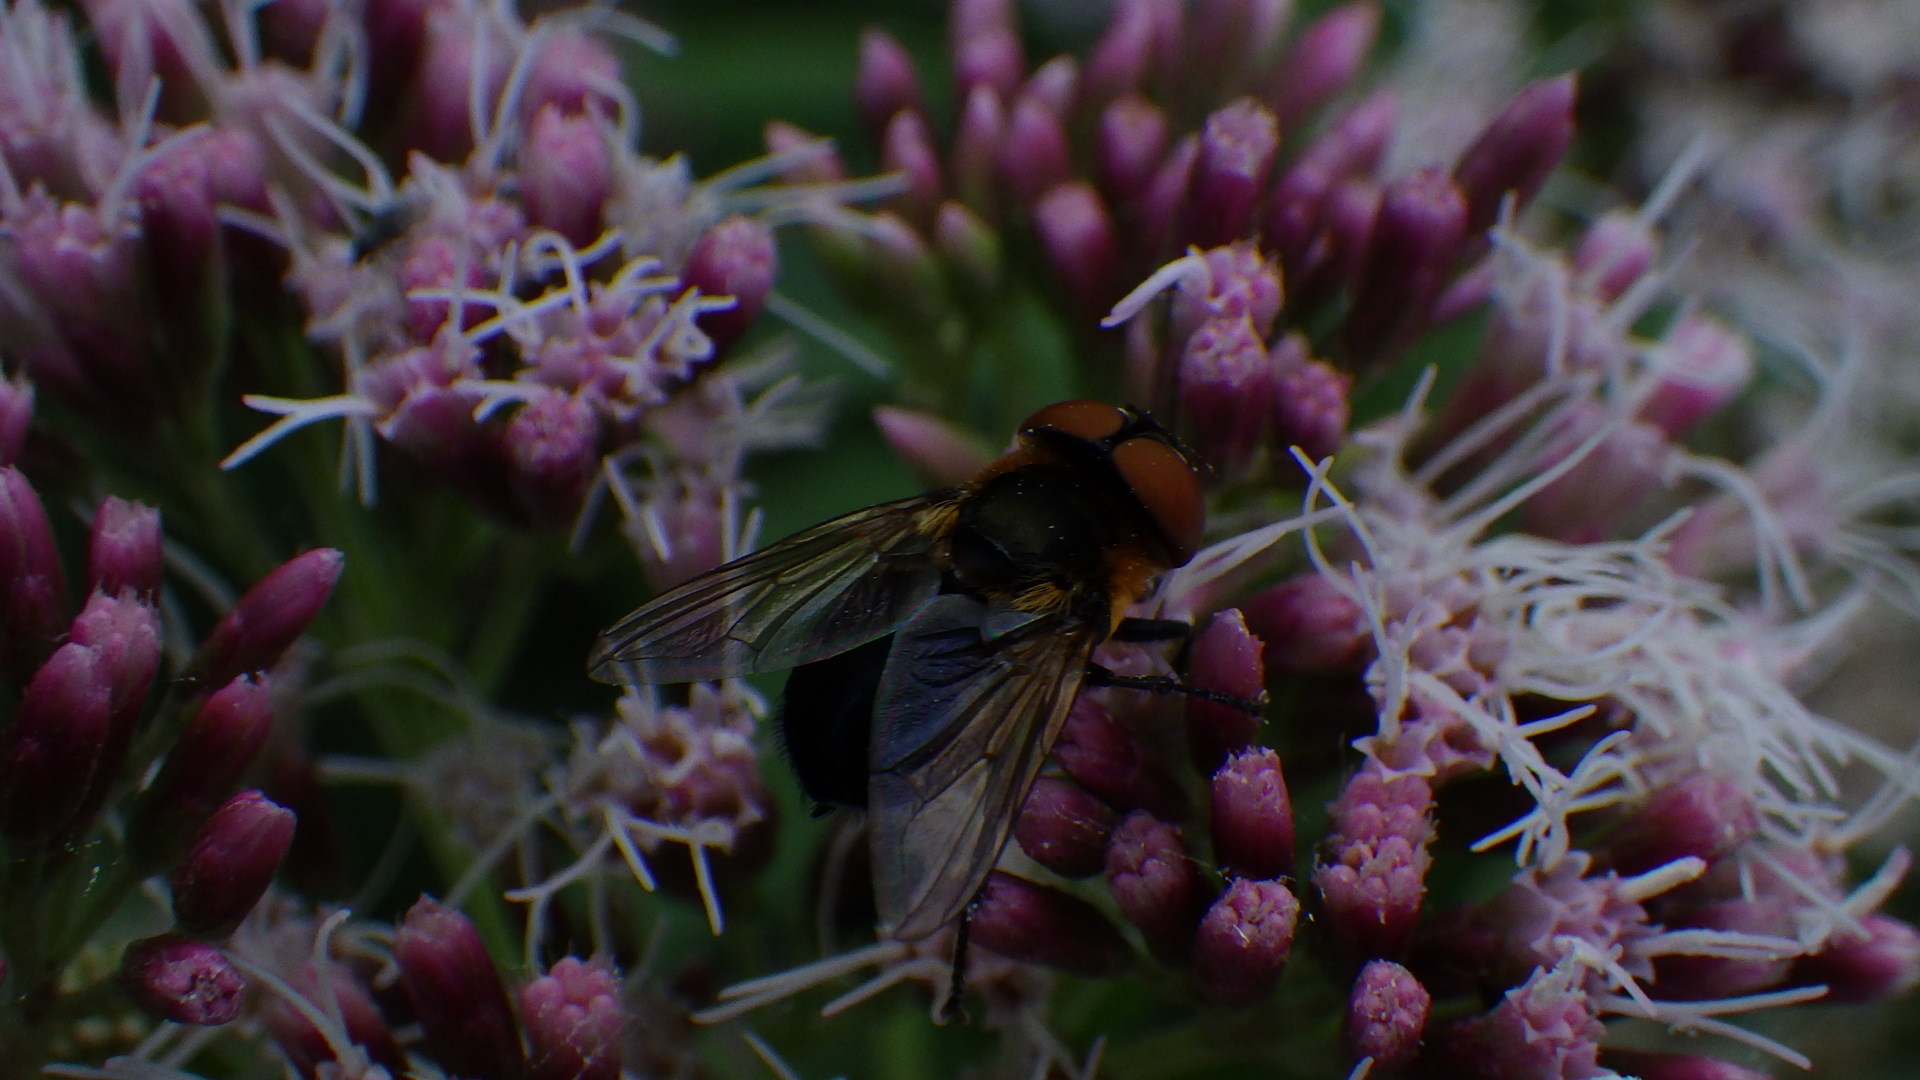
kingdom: Animalia
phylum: Arthropoda
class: Insecta
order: Diptera
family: Tachinidae
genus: Phasia
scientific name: Phasia hemiptera
